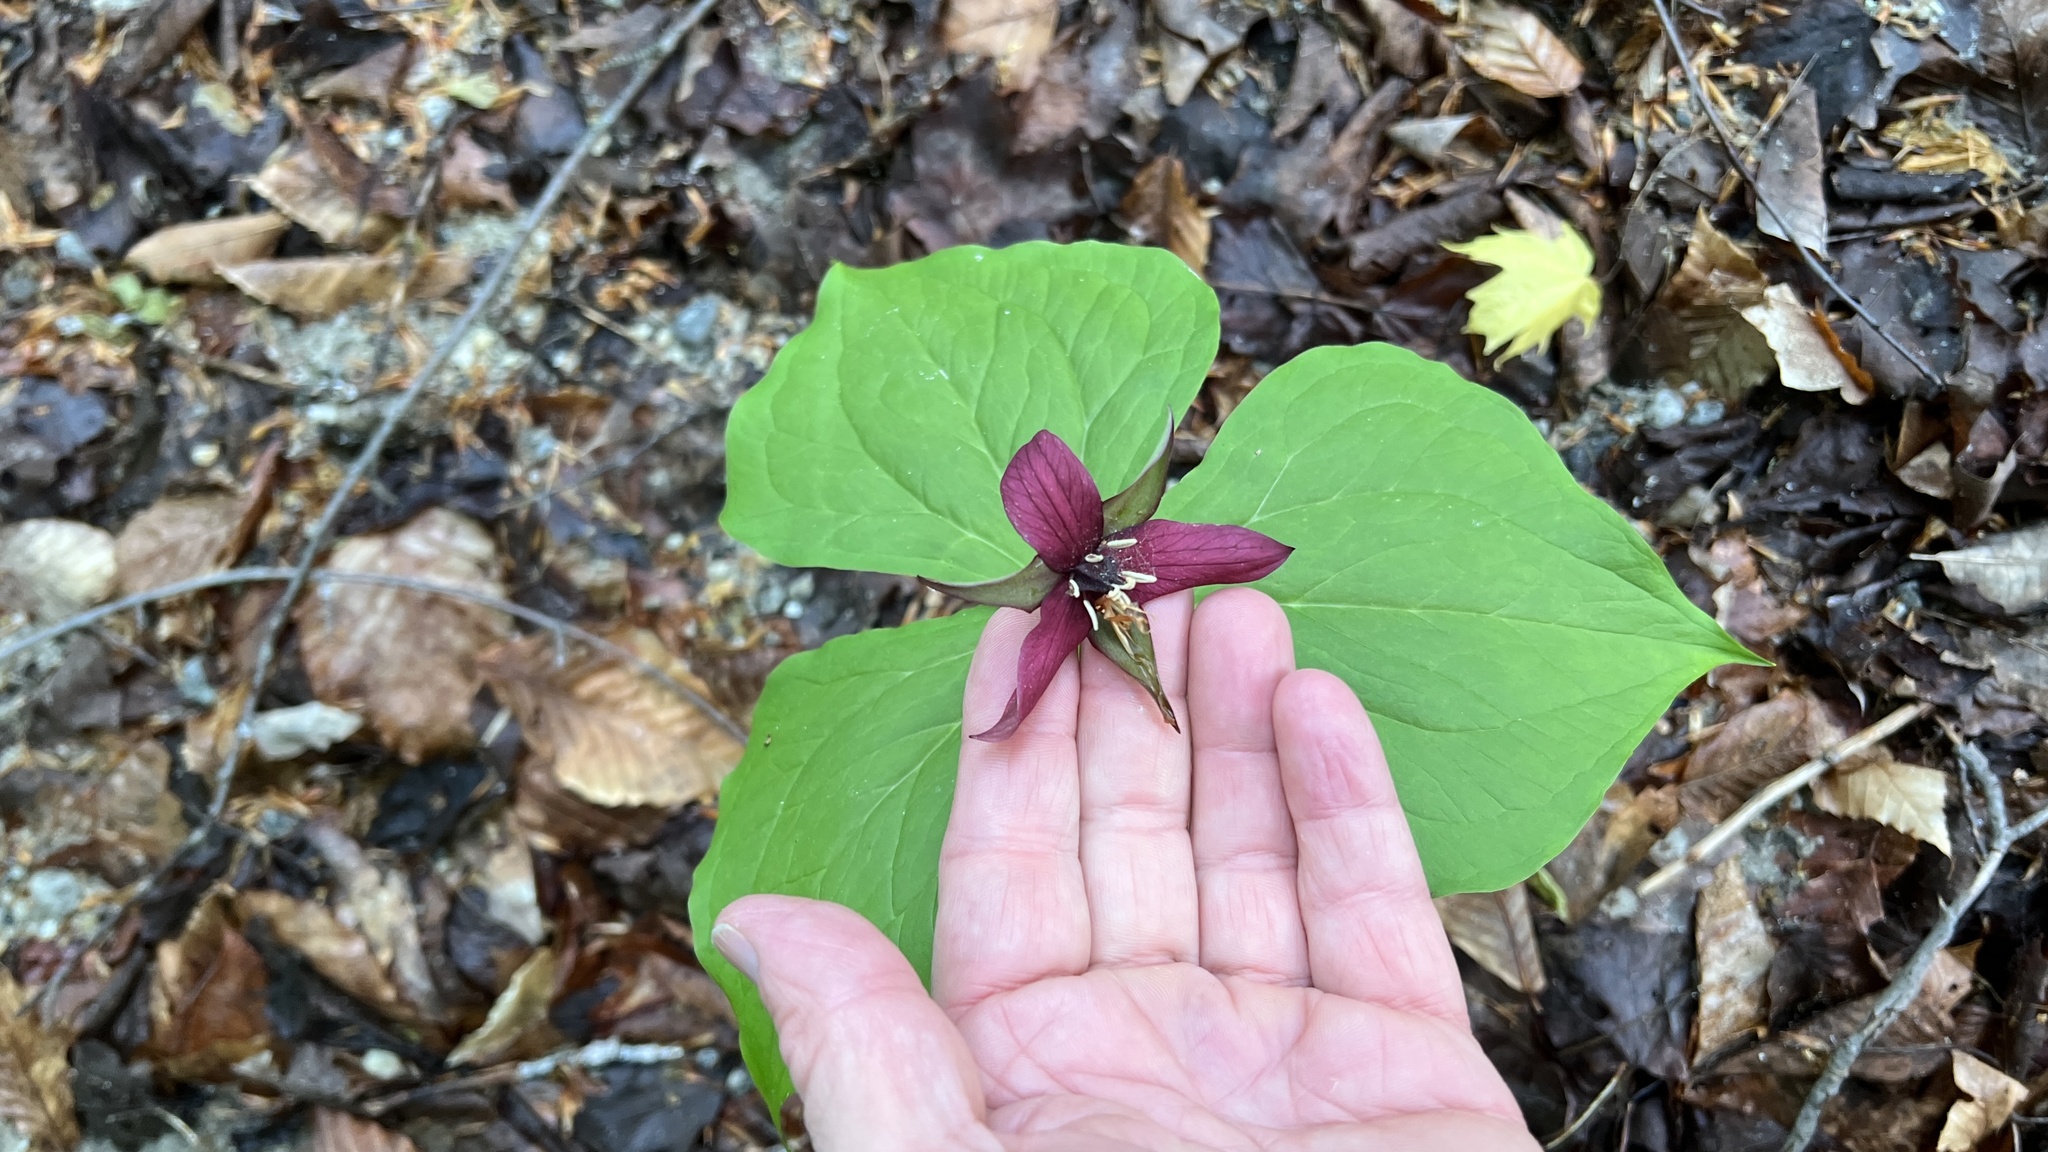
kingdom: Plantae
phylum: Tracheophyta
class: Liliopsida
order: Liliales
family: Melanthiaceae
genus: Trillium
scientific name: Trillium erectum
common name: Purple trillium
